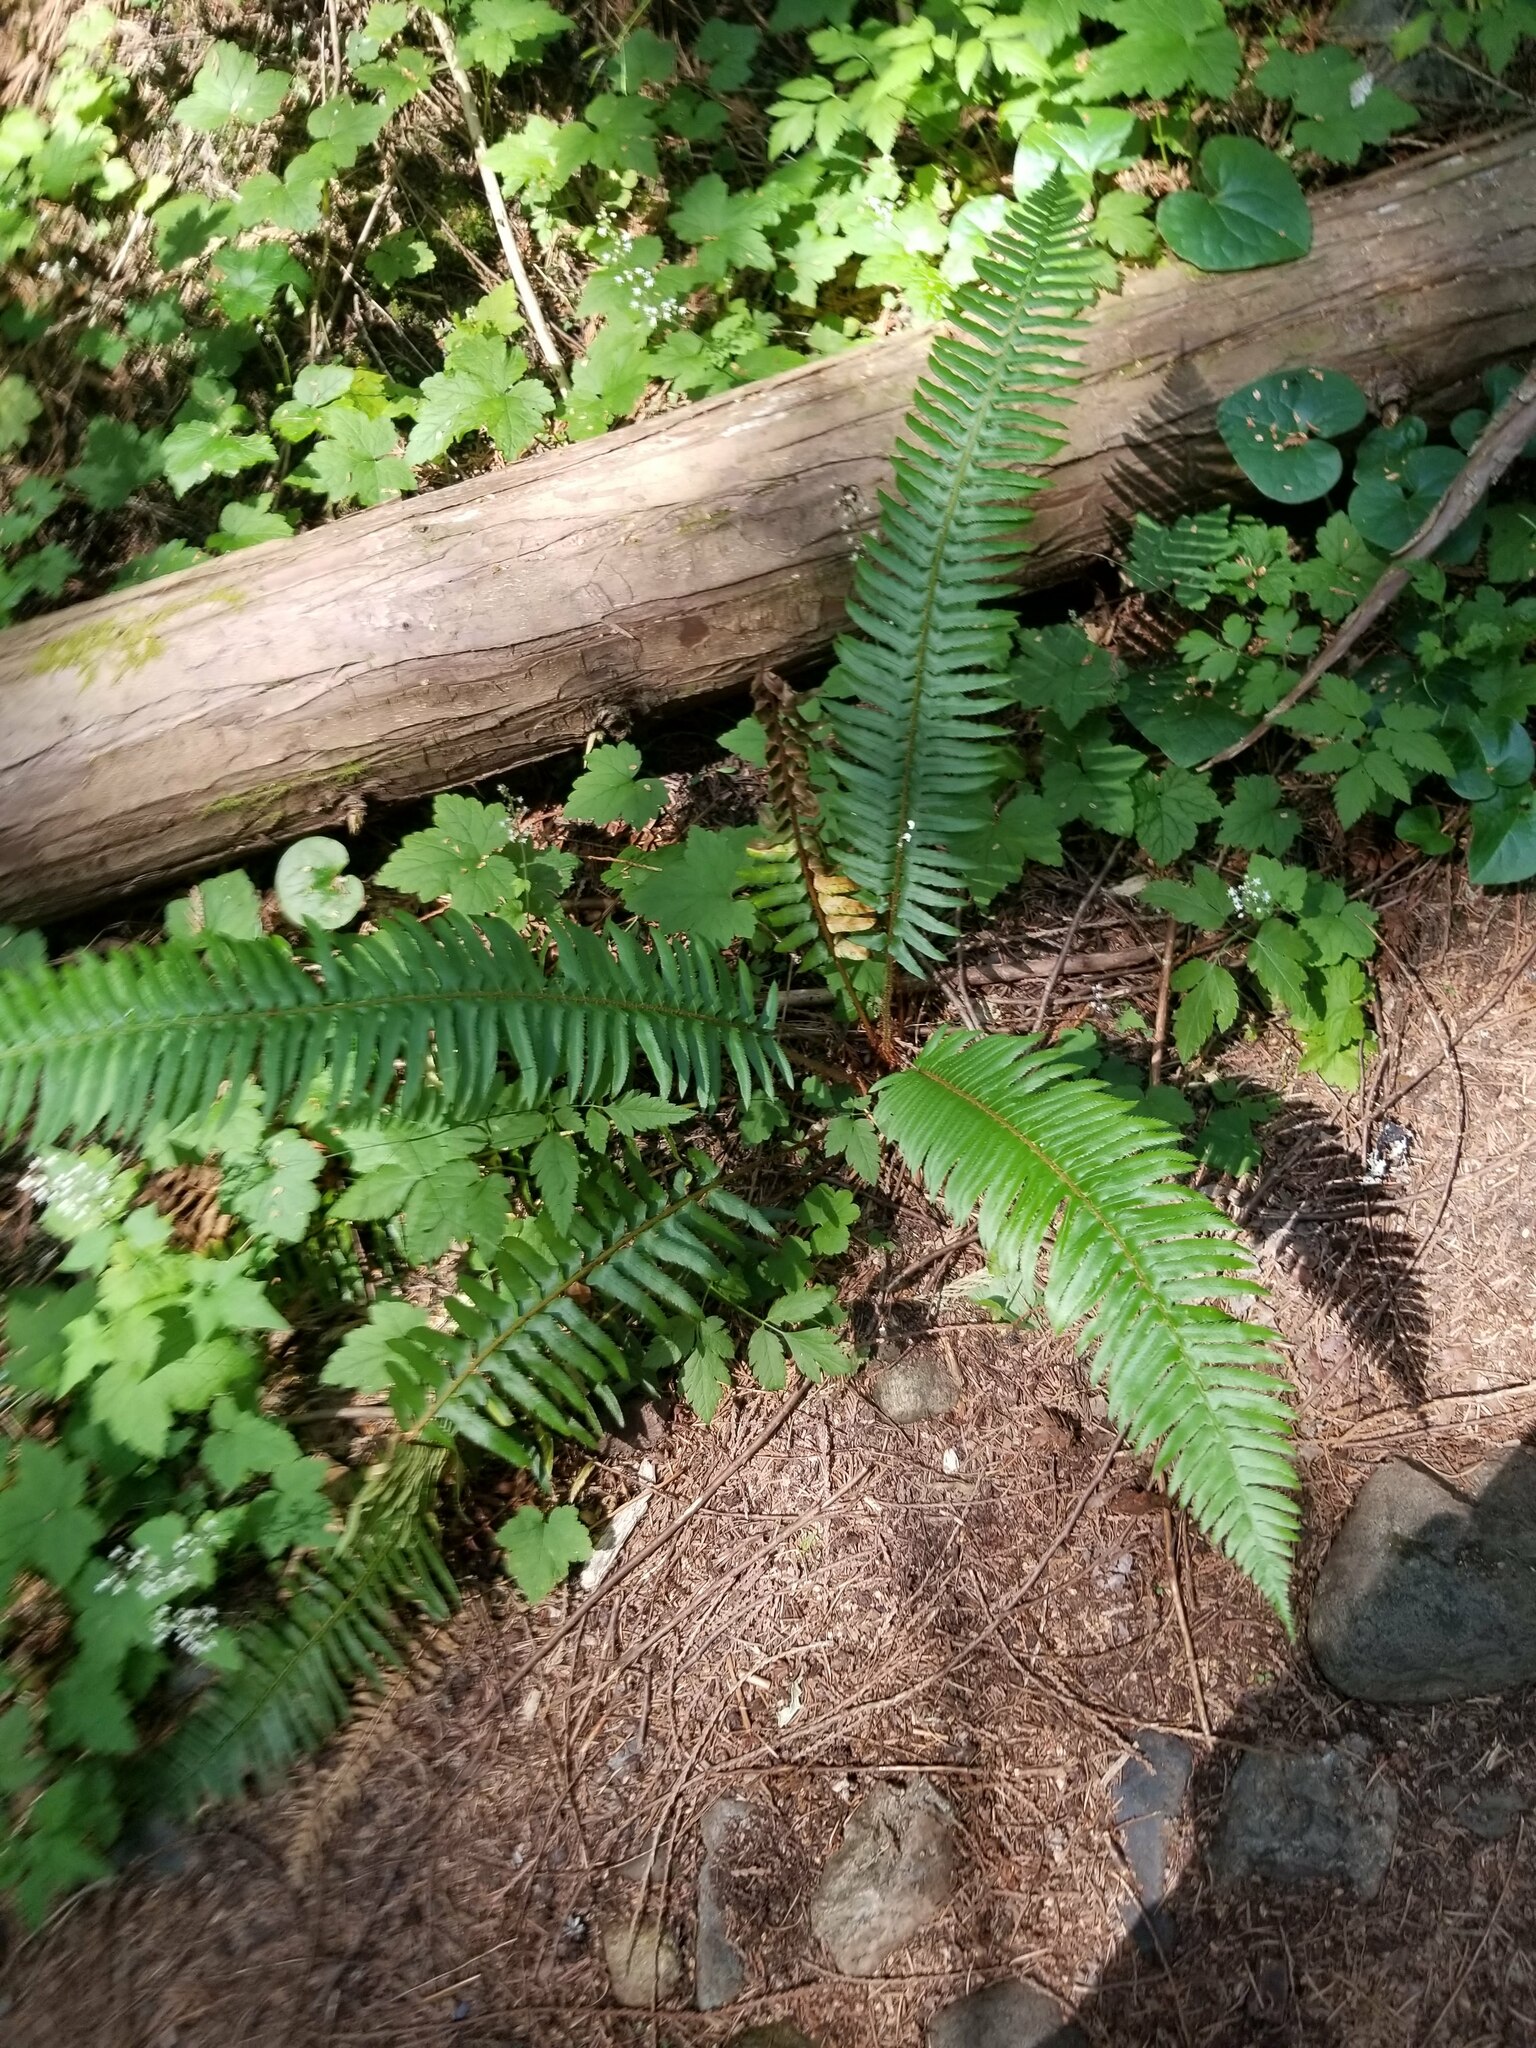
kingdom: Plantae
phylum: Tracheophyta
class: Polypodiopsida
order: Polypodiales
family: Dryopteridaceae
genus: Polystichum
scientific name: Polystichum munitum
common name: Western sword-fern
